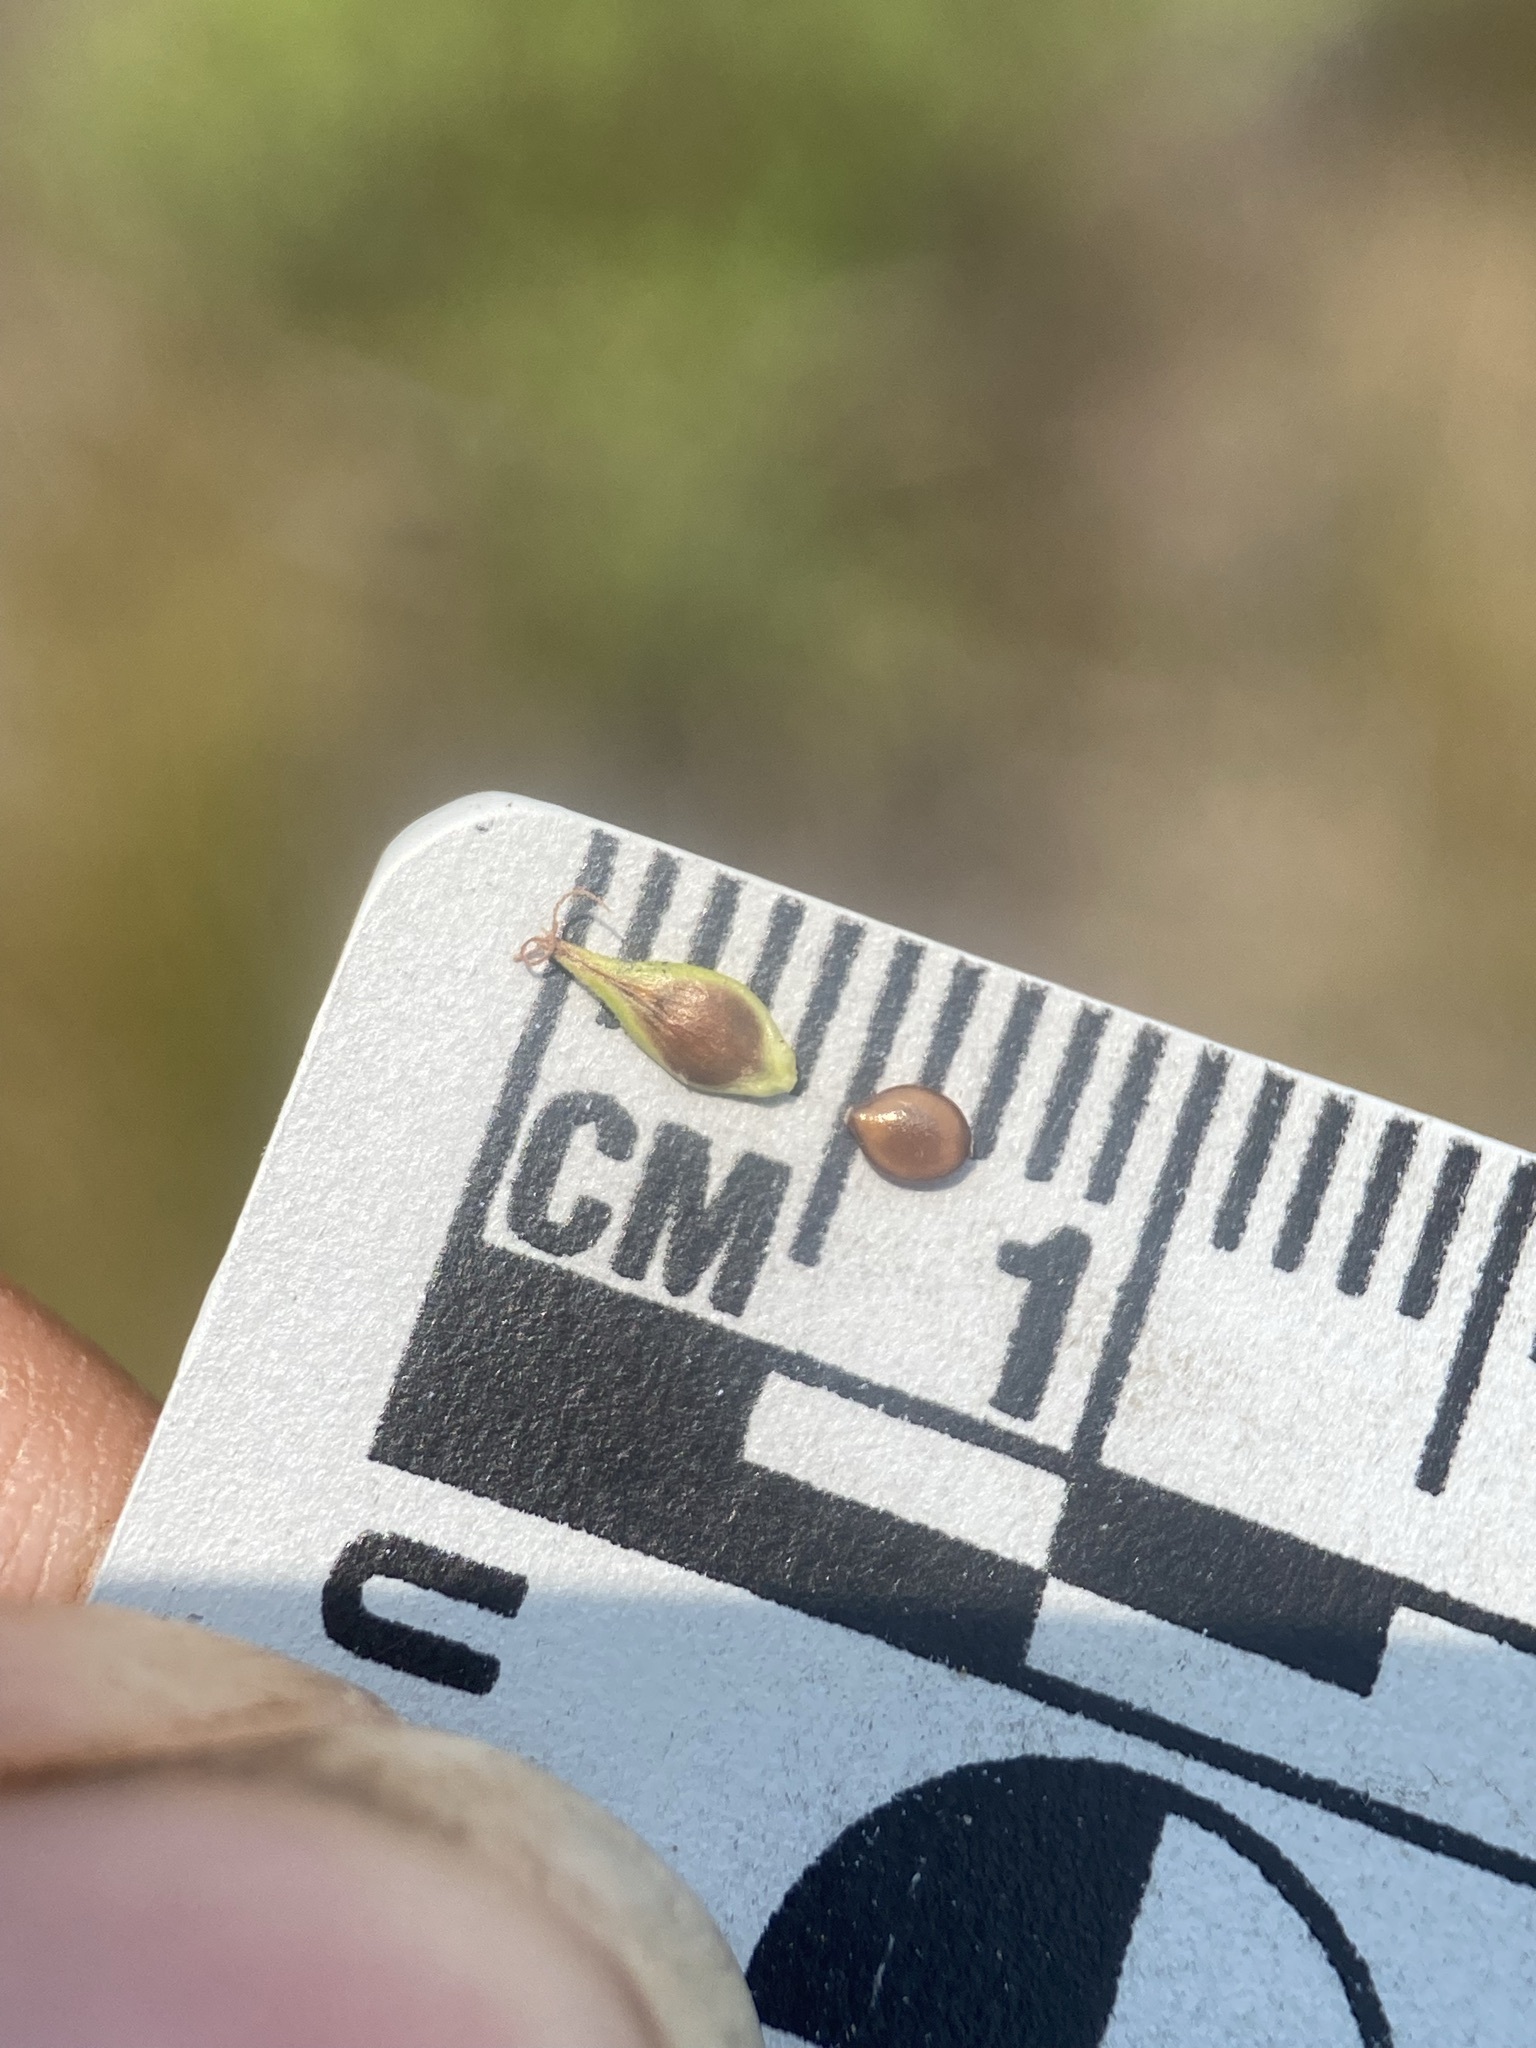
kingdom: Plantae
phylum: Tracheophyta
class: Liliopsida
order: Poales
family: Cyperaceae
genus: Carex
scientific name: Carex hoodii
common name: Hood's sedge
